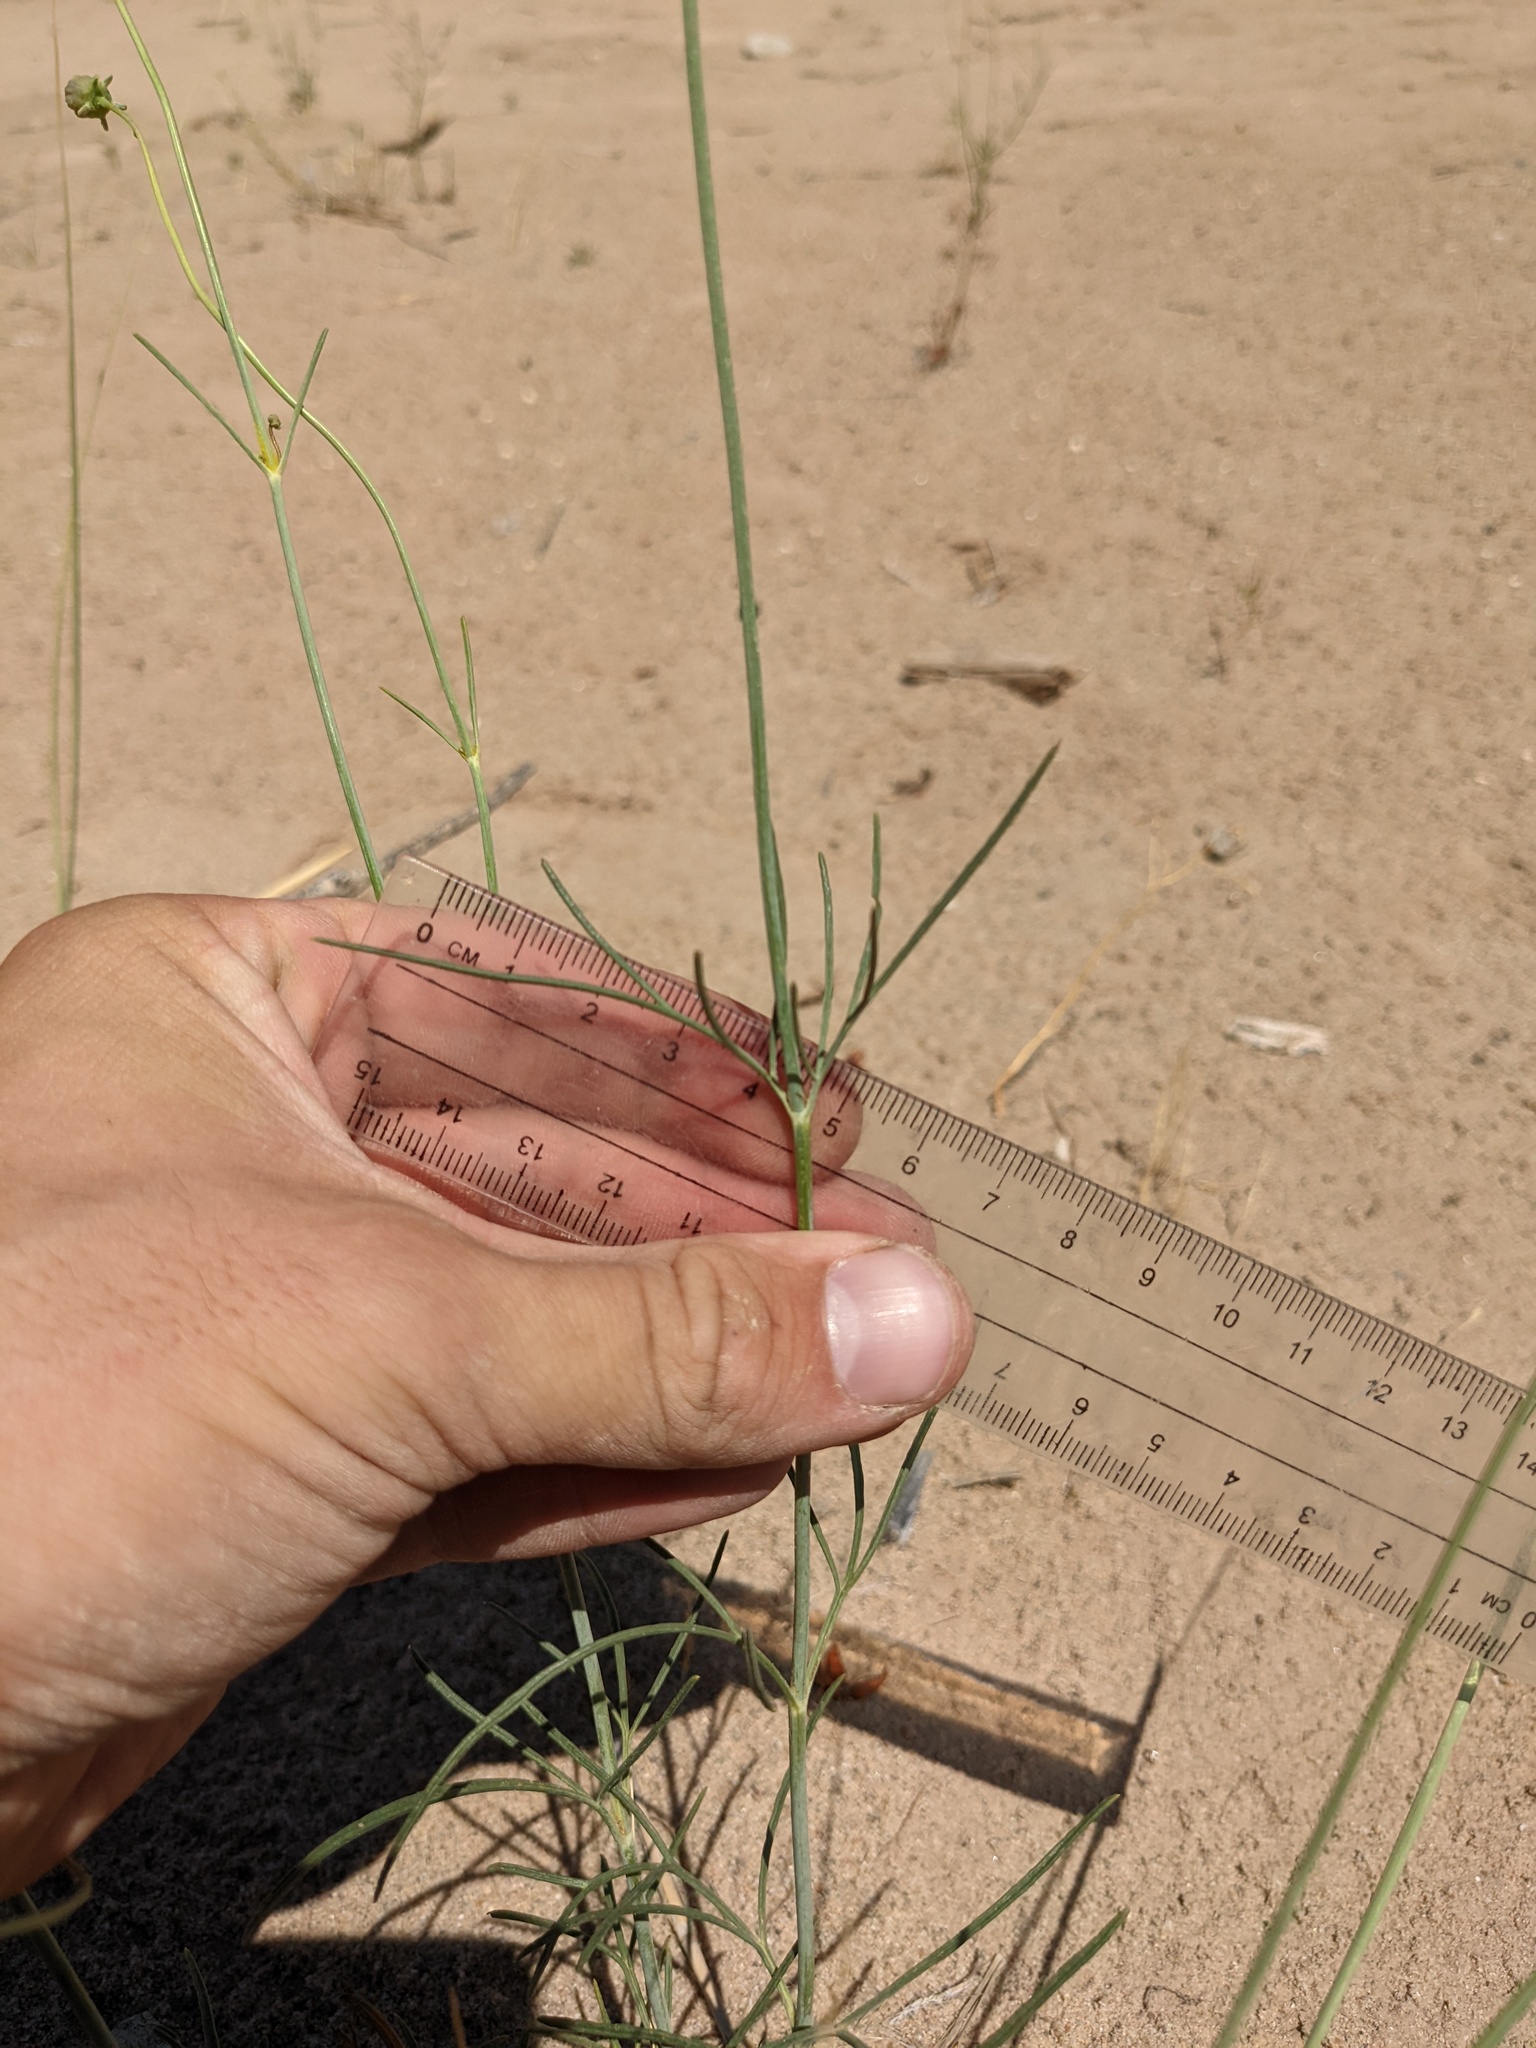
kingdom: Plantae
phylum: Tracheophyta
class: Magnoliopsida
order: Asterales
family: Asteraceae
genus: Thelesperma
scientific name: Thelesperma megapotamicum
